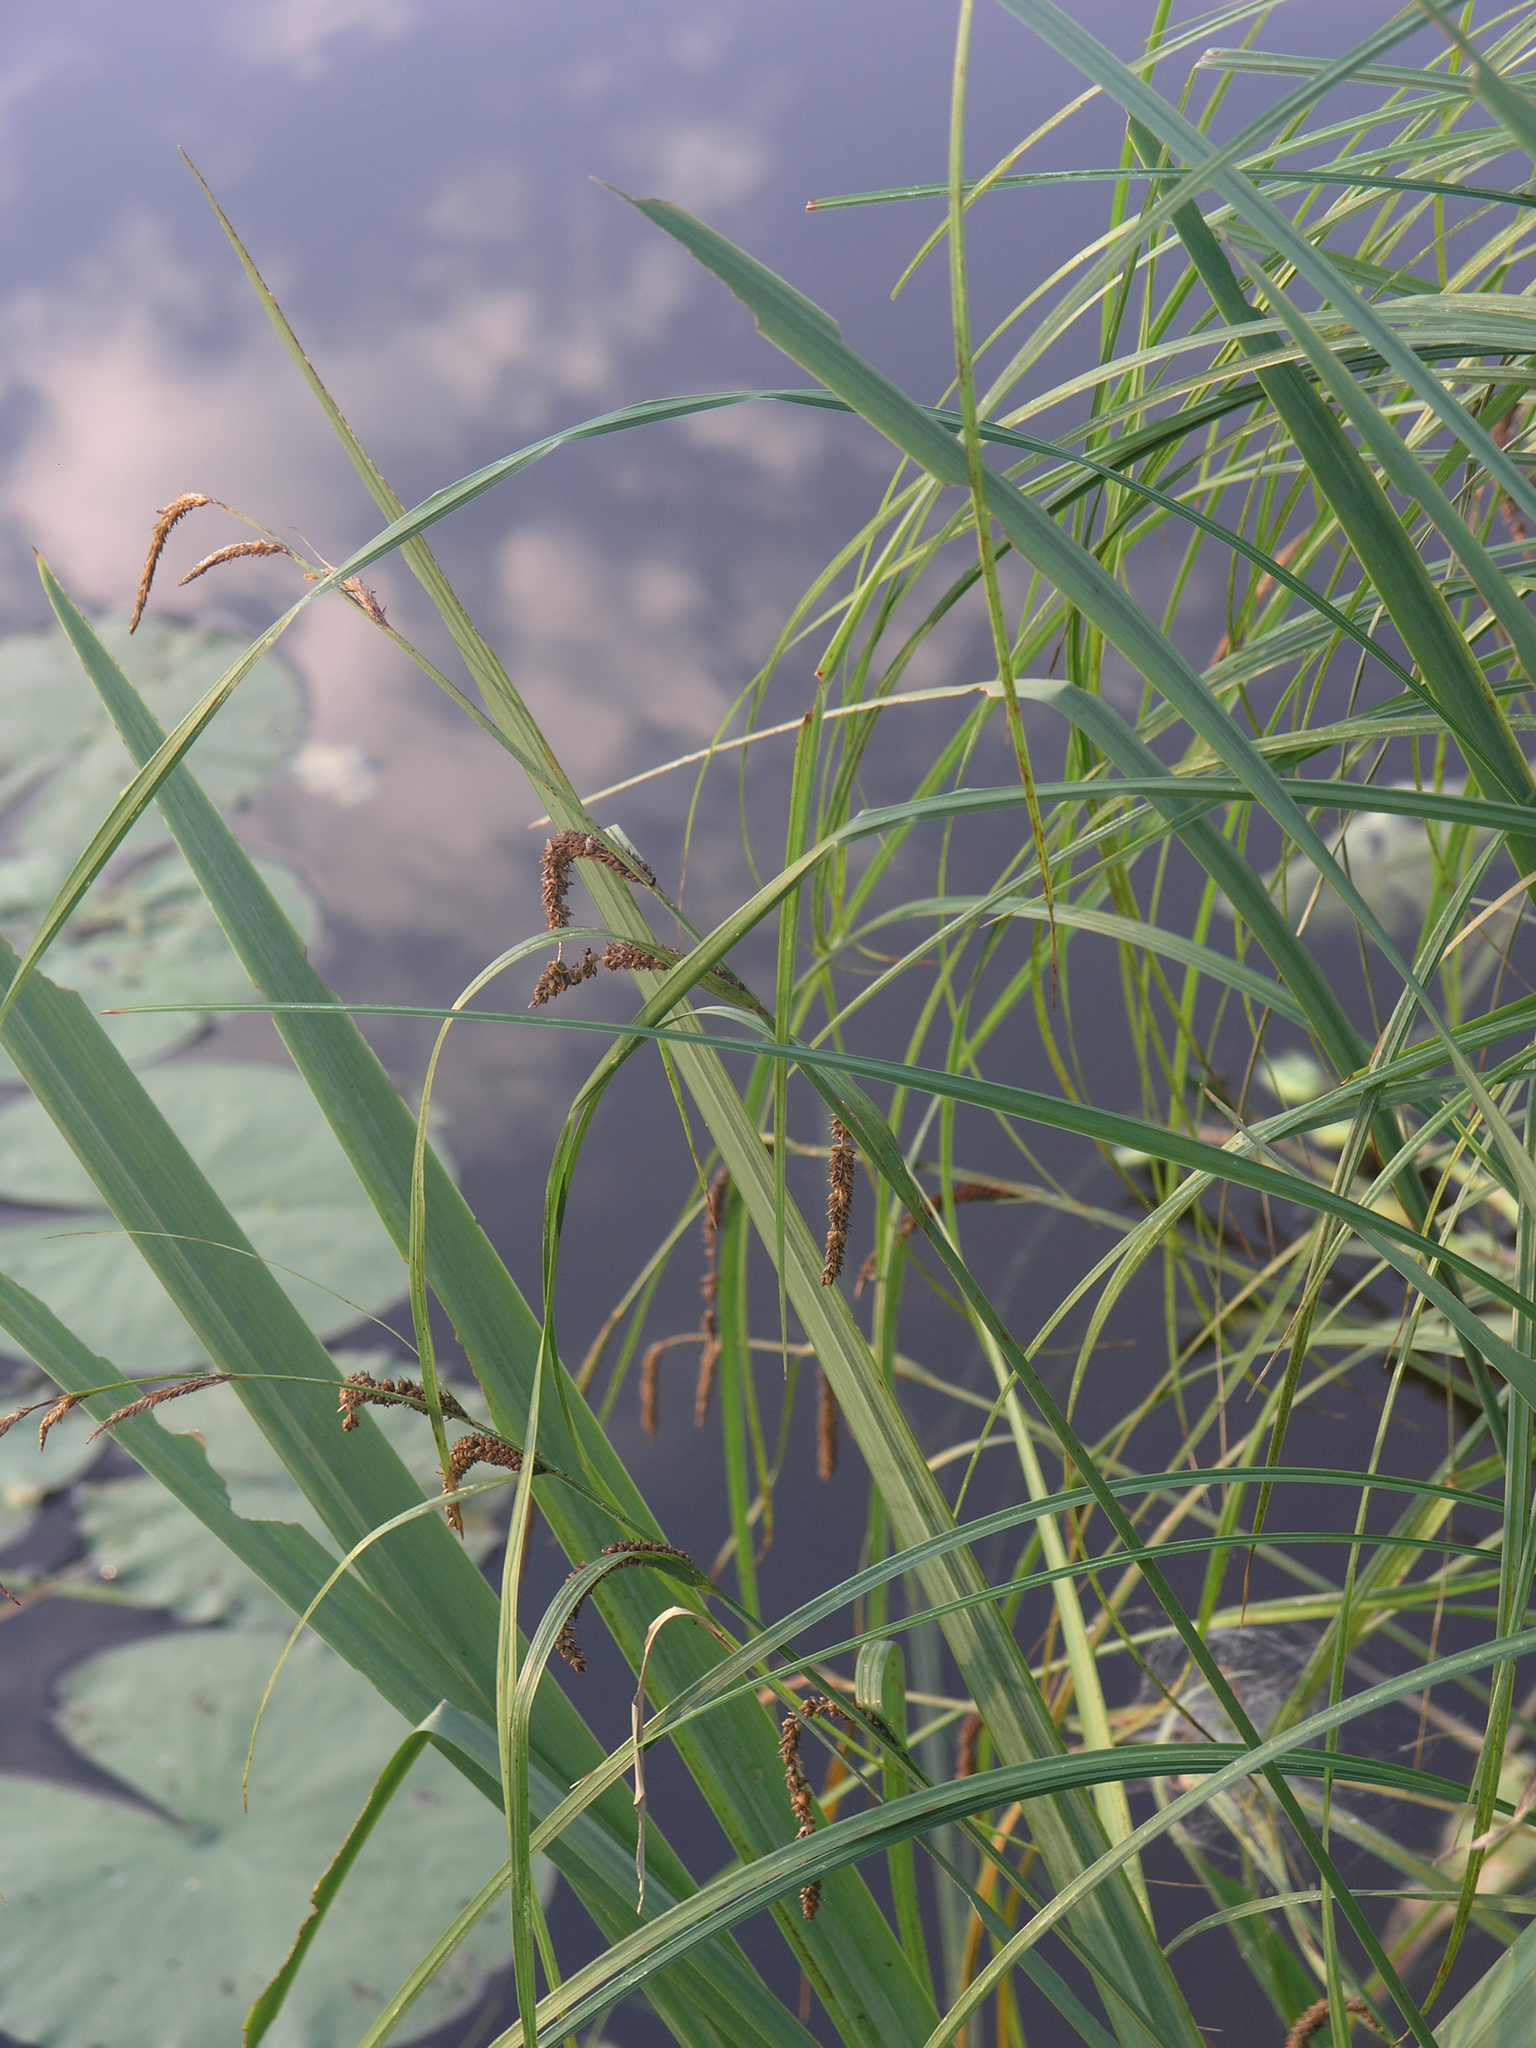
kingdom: Plantae
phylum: Tracheophyta
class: Liliopsida
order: Poales
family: Cyperaceae
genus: Carex
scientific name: Carex acuta
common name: Slender tufted-sedge
